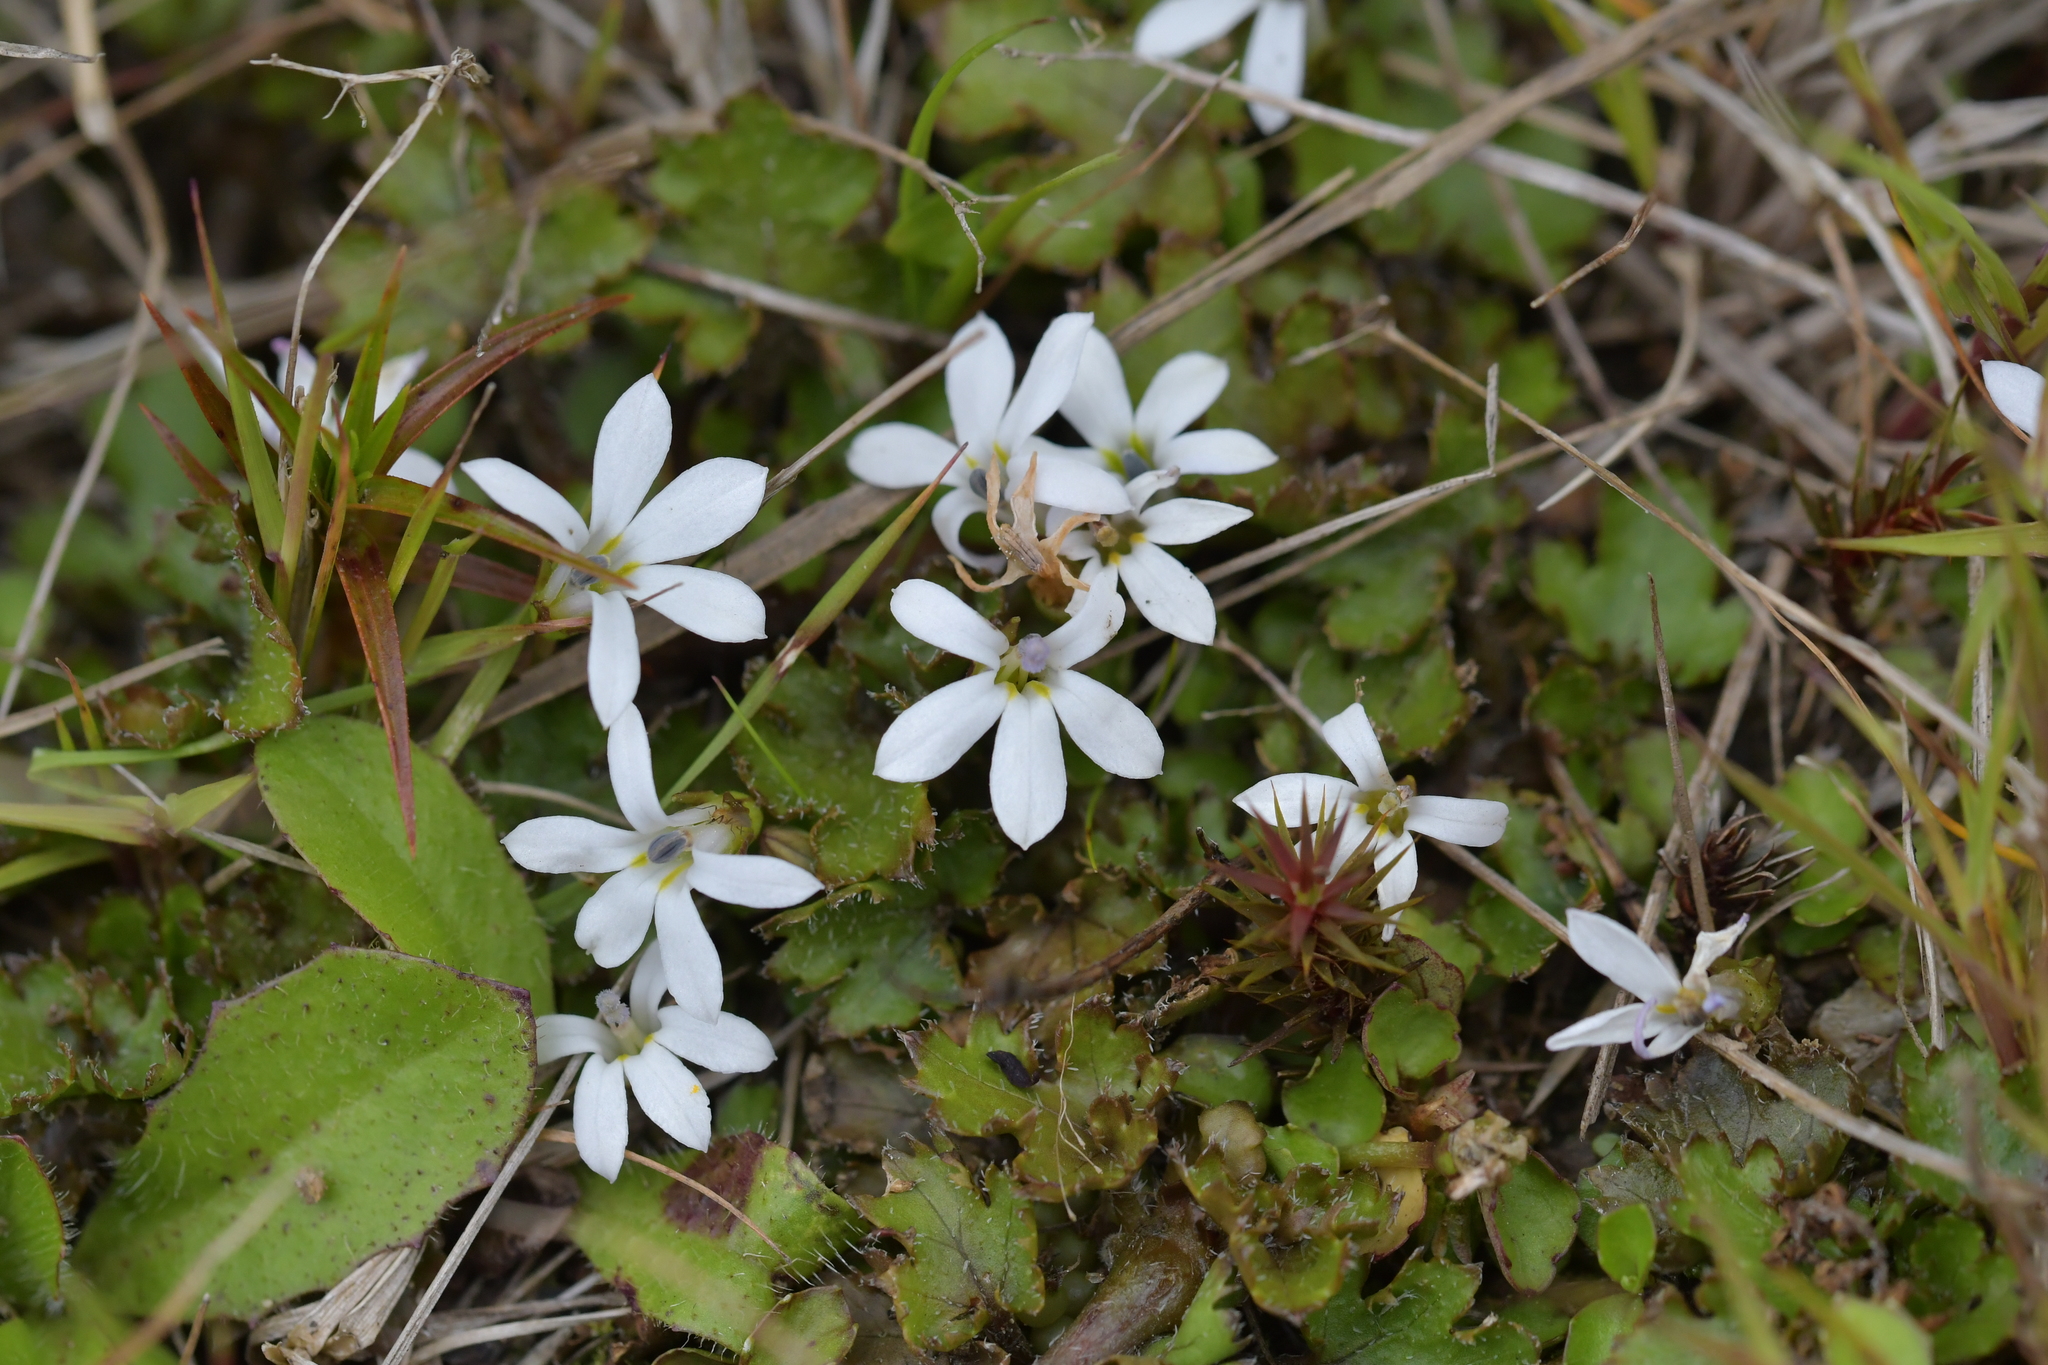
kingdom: Plantae
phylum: Tracheophyta
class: Magnoliopsida
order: Asterales
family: Campanulaceae
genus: Lobelia
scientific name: Lobelia angulata
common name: Lawn lobelia
